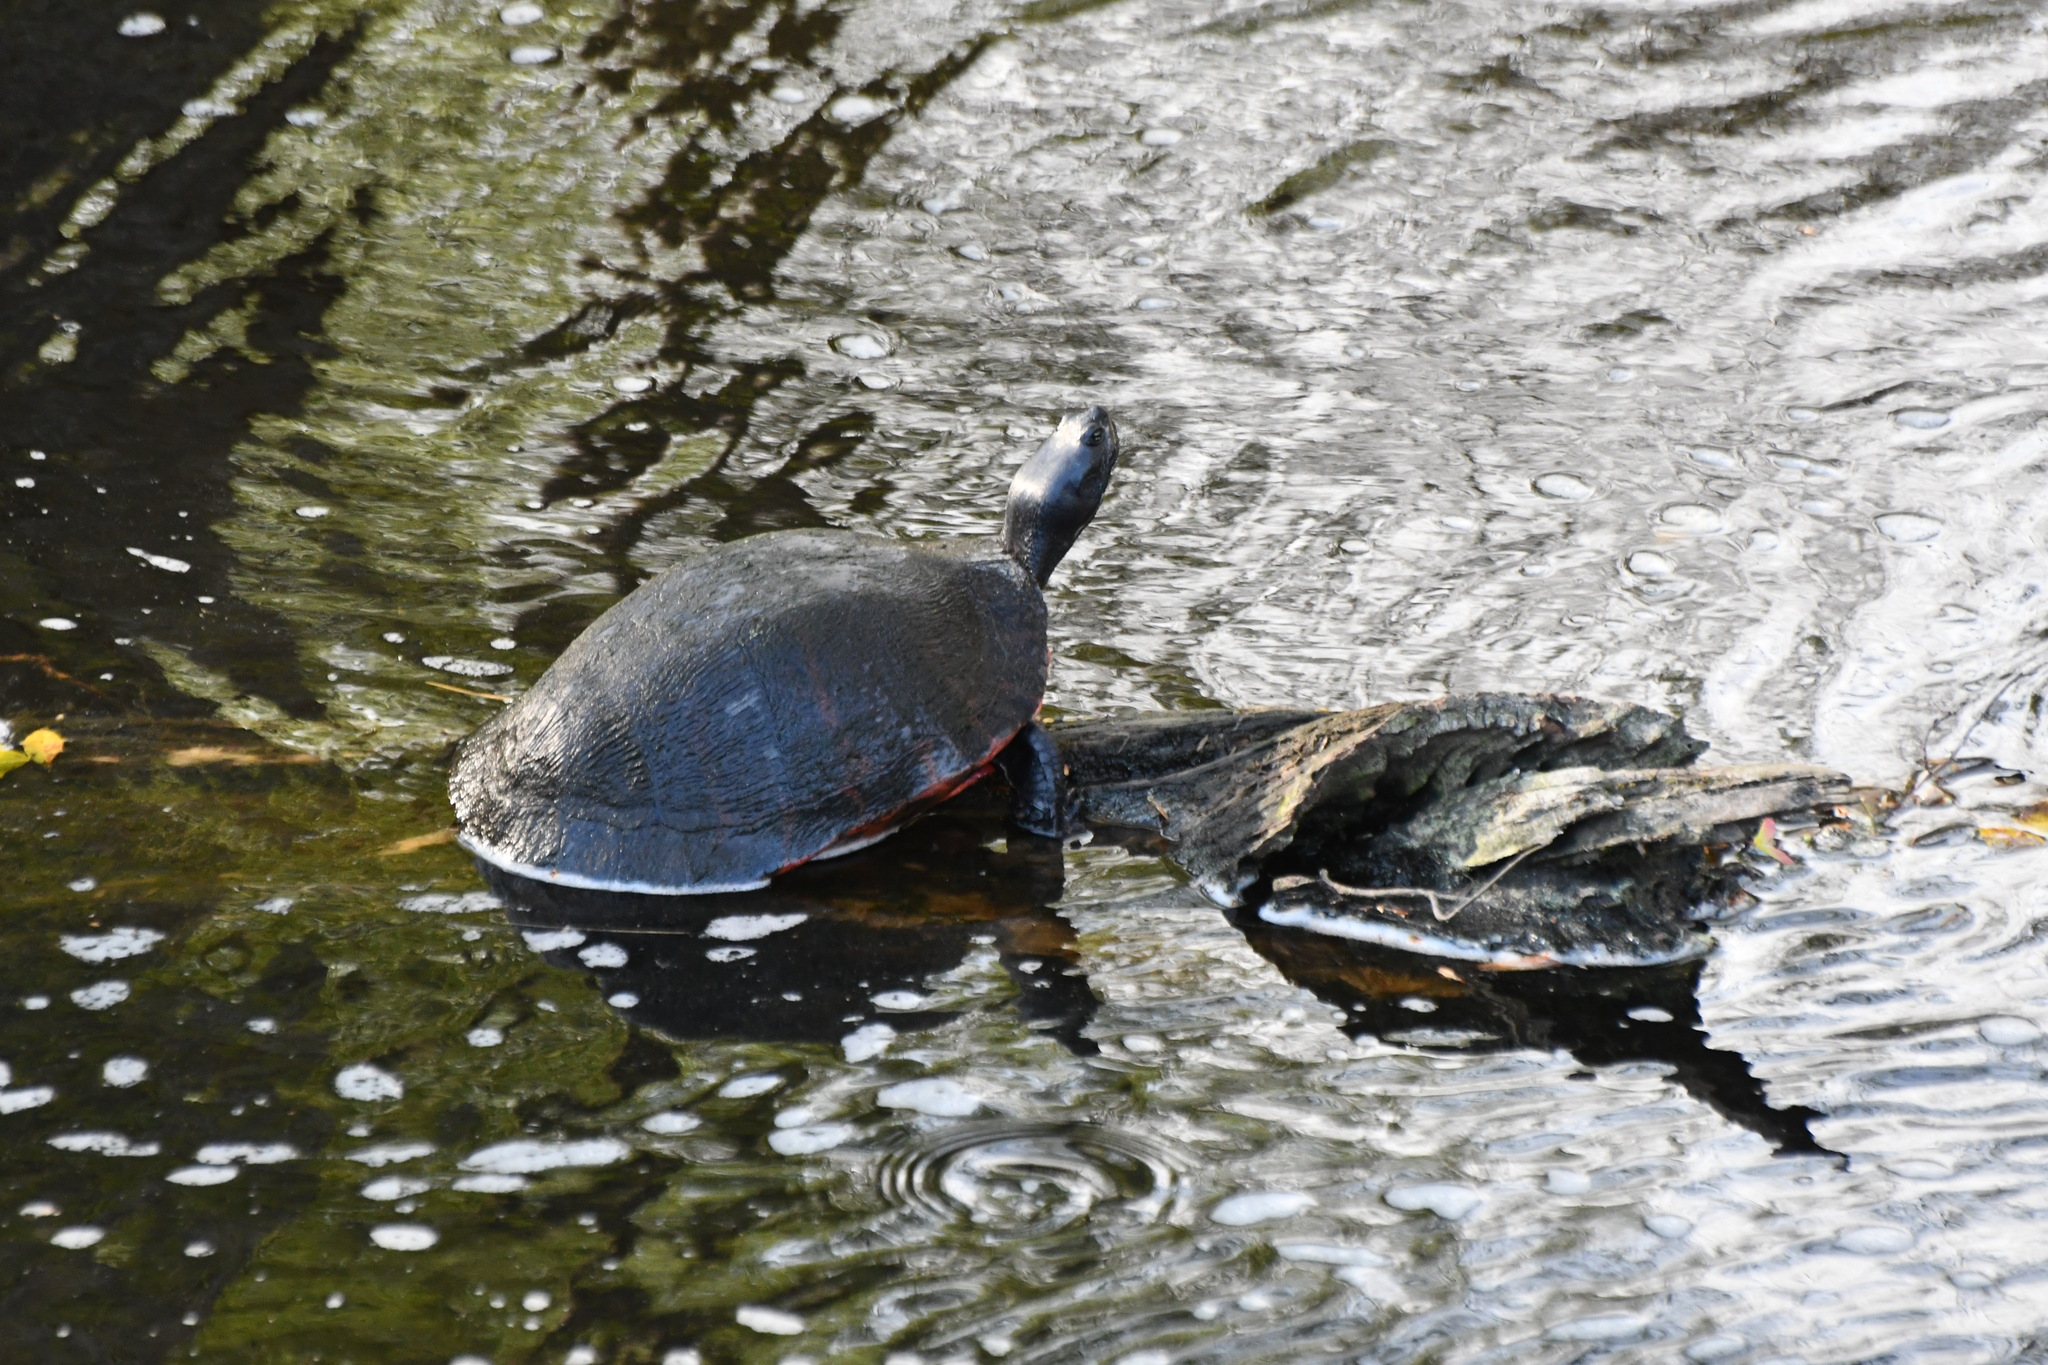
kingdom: Animalia
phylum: Chordata
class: Testudines
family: Emydidae
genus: Pseudemys
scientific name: Pseudemys rubriventris
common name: American red-bellied turtle
